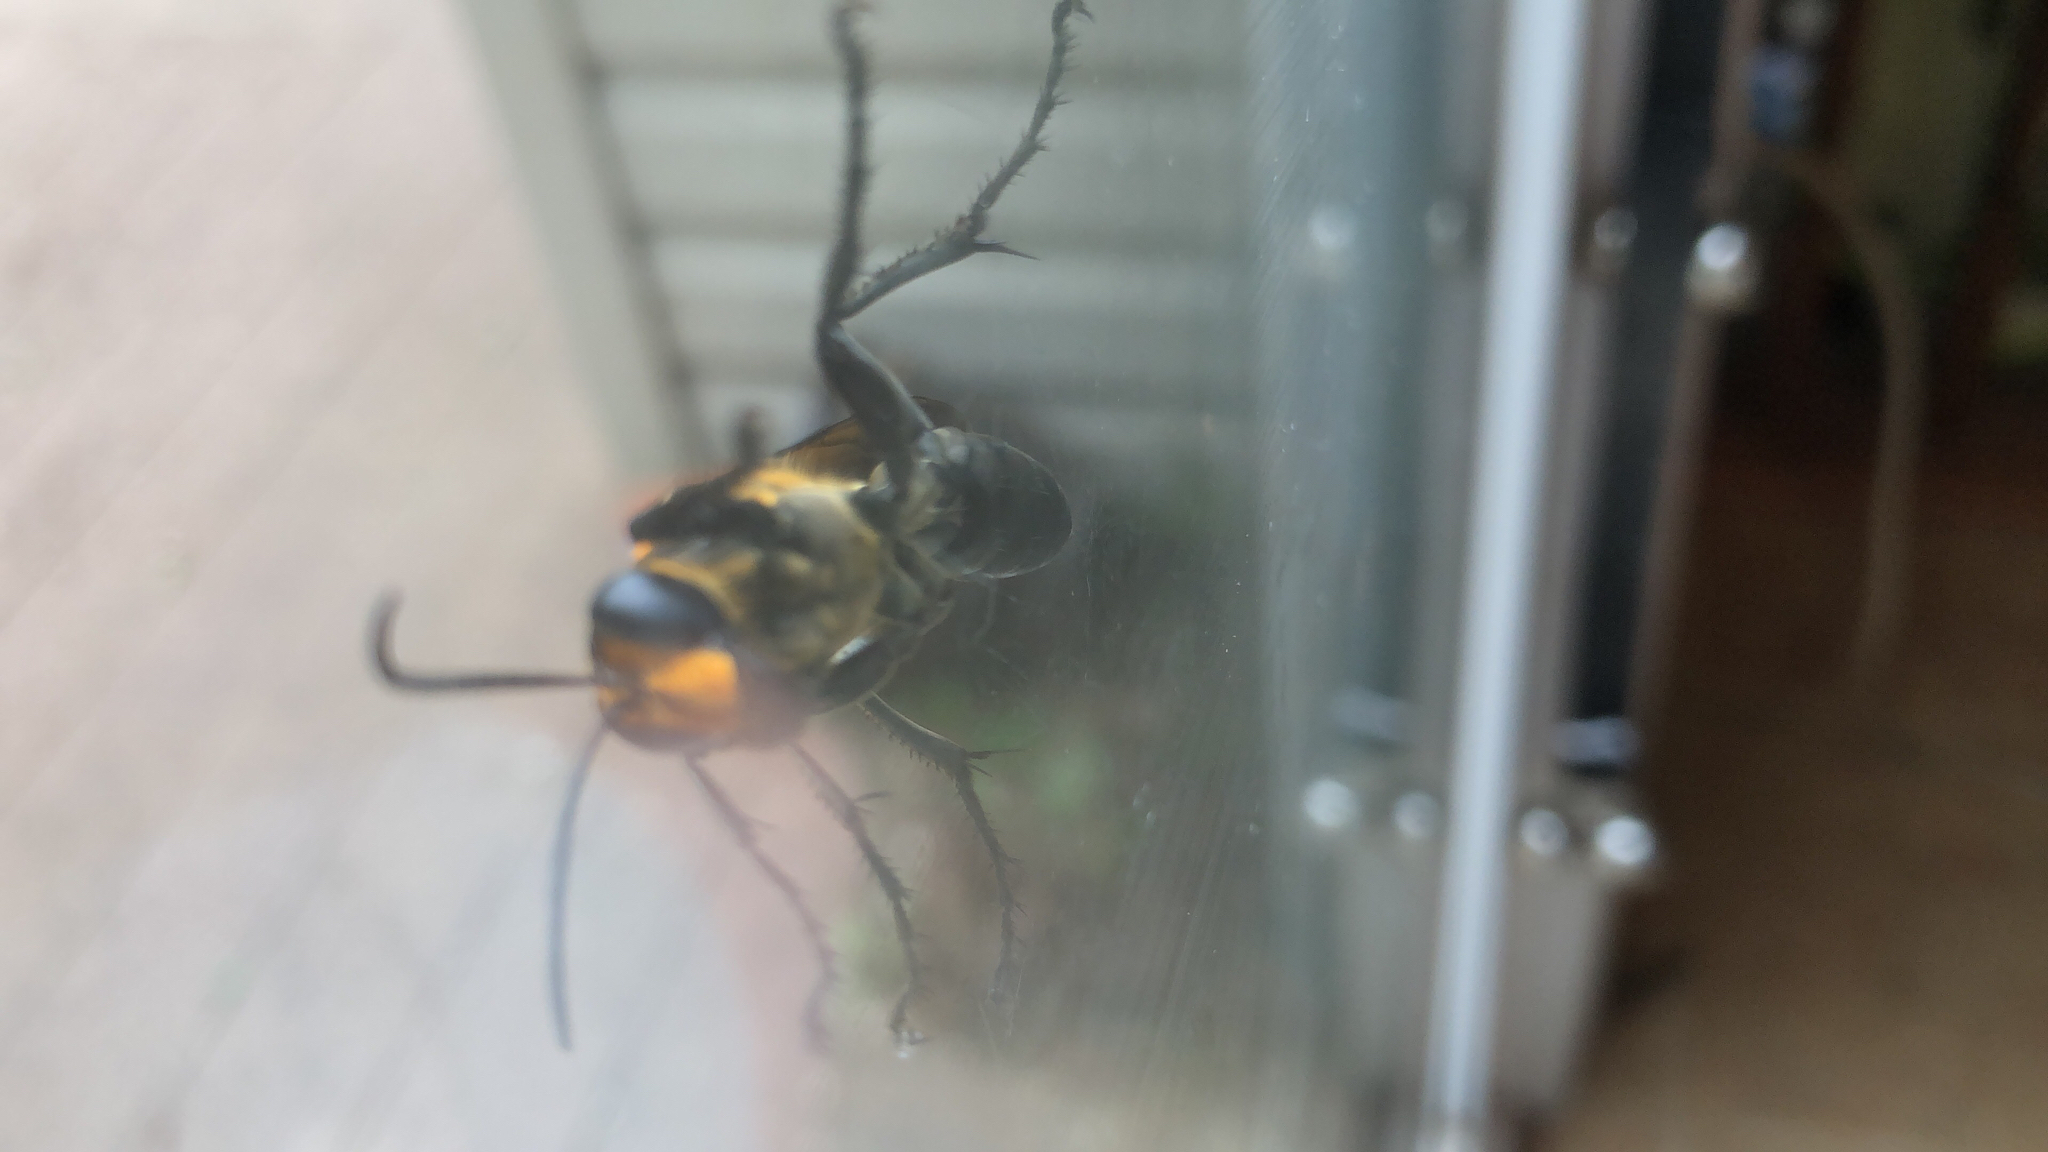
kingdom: Animalia
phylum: Arthropoda
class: Insecta
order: Hymenoptera
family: Sphecidae
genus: Sphex
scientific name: Sphex habenus
